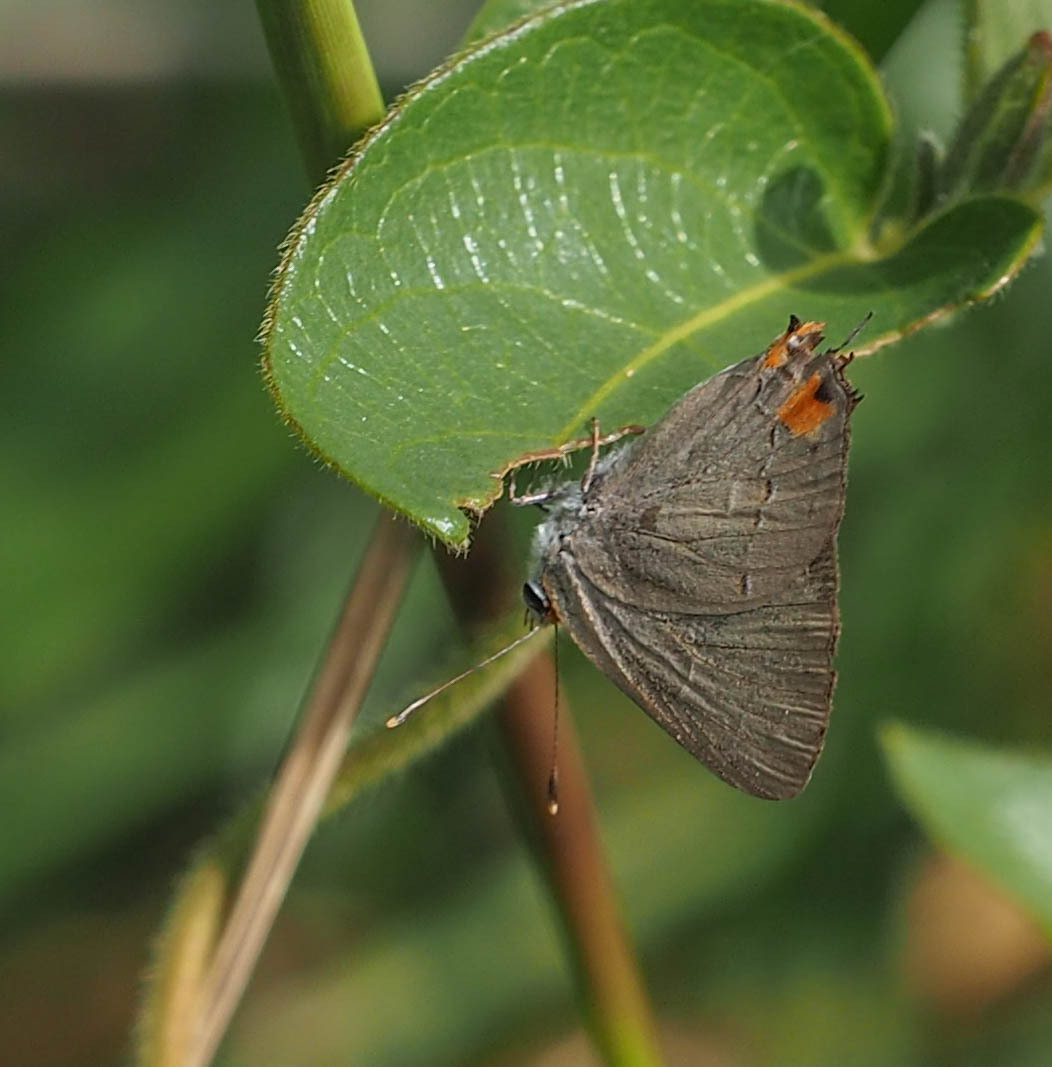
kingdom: Animalia
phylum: Arthropoda
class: Insecta
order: Lepidoptera
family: Lycaenidae
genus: Strymon
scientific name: Strymon melinus
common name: Gray hairstreak
